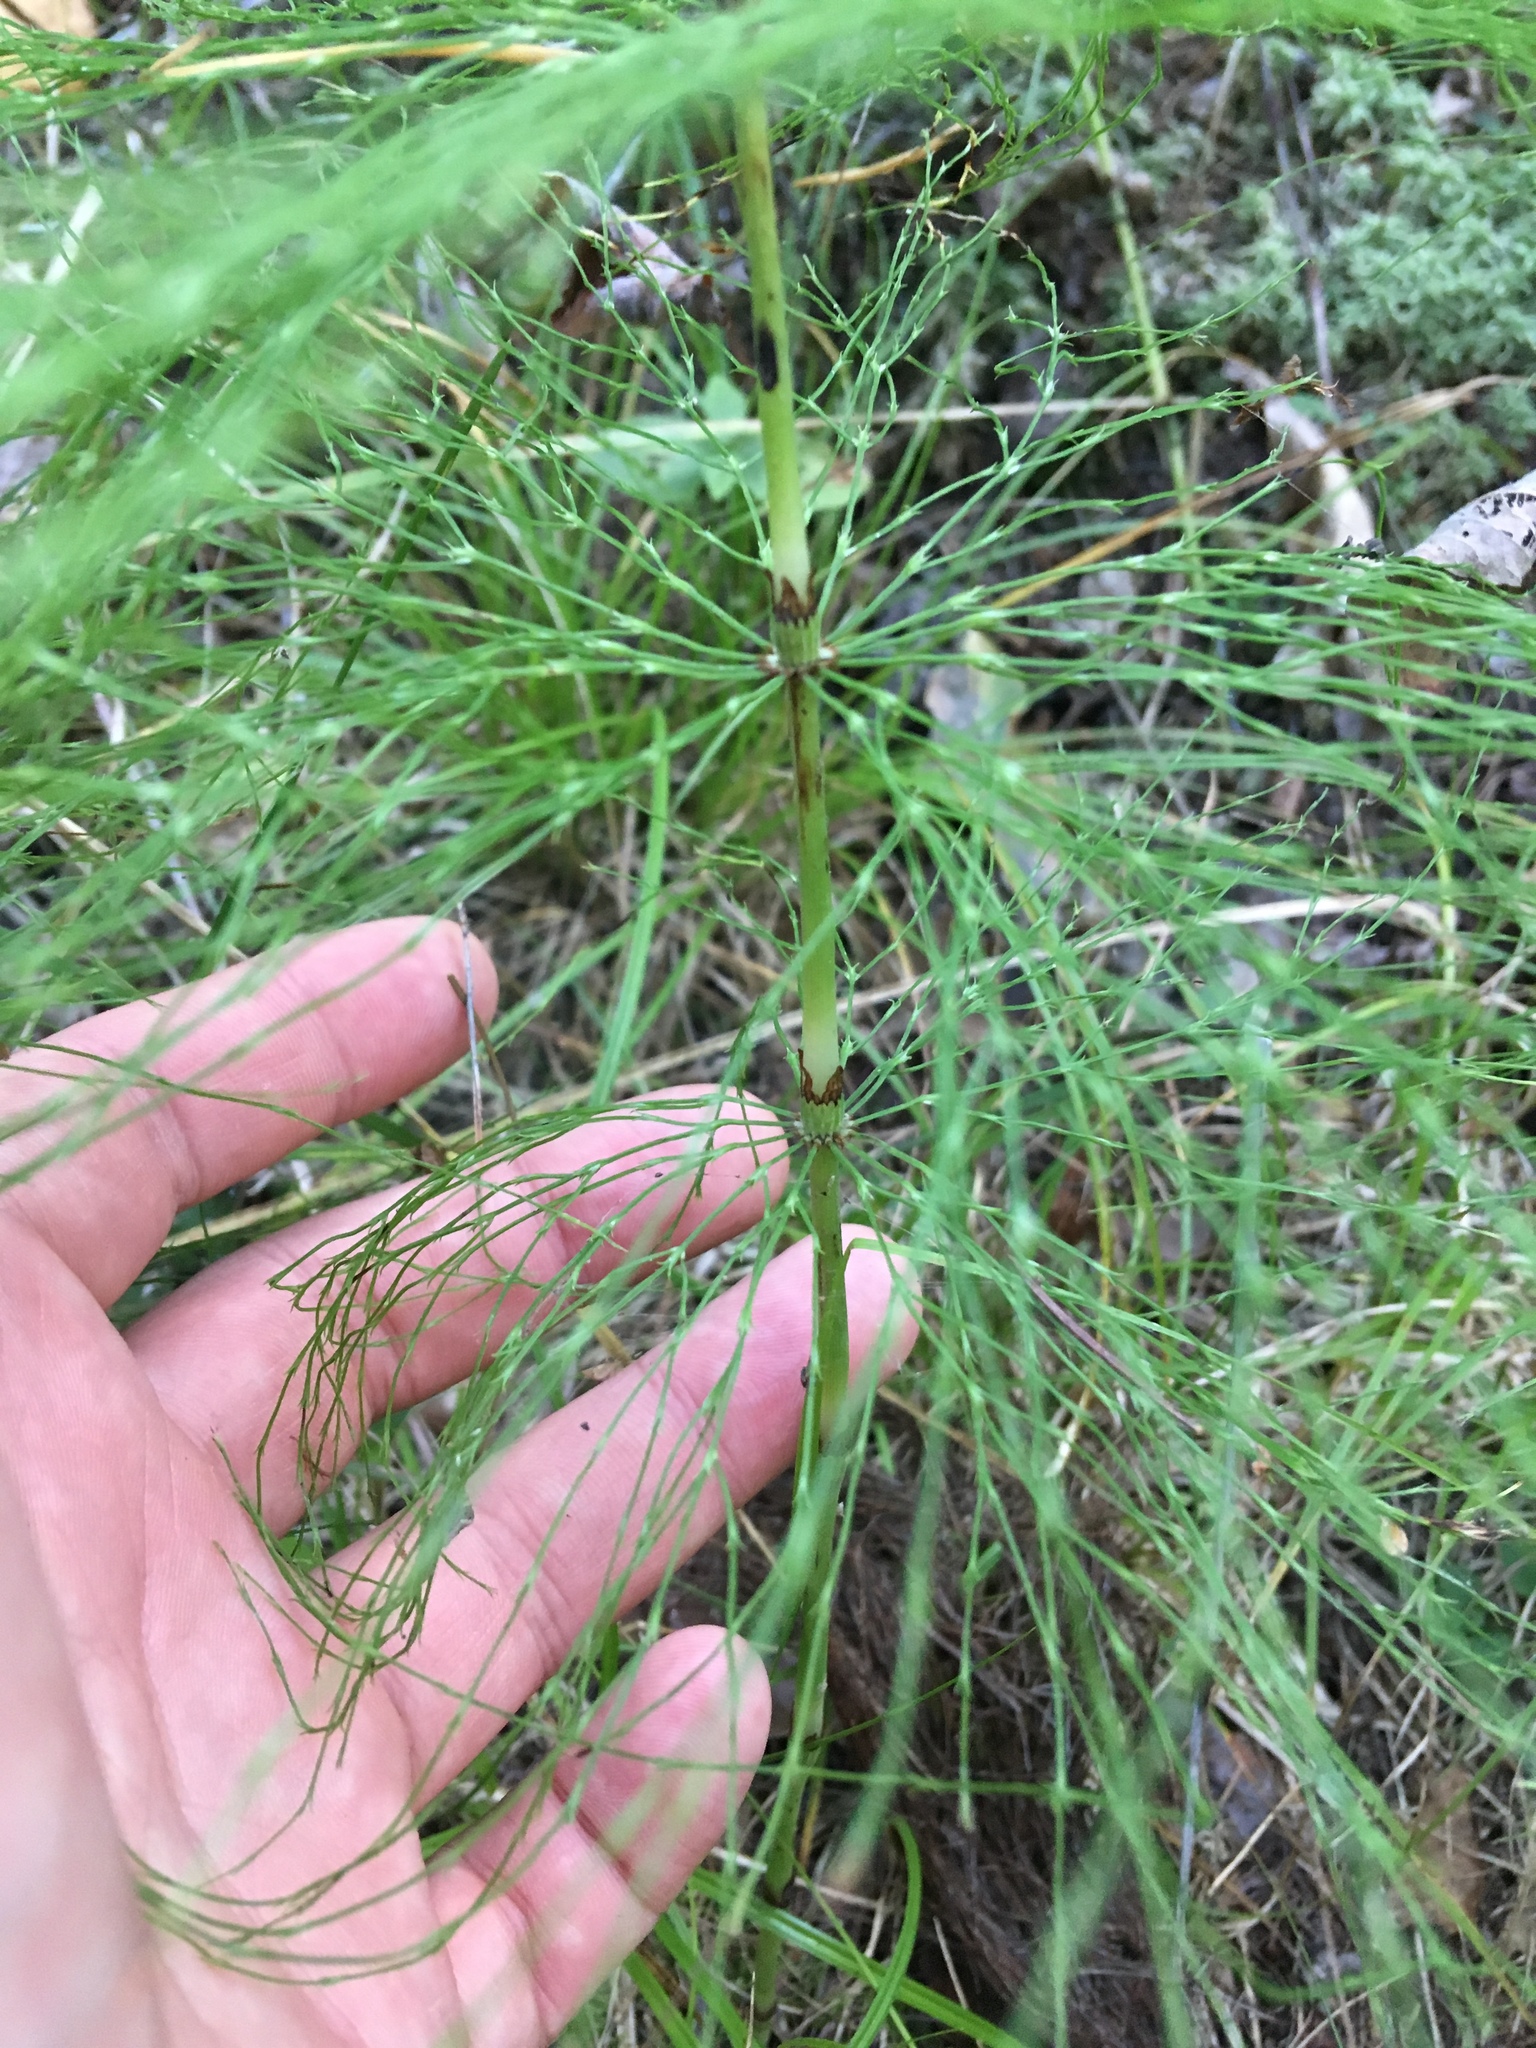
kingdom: Plantae
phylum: Tracheophyta
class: Polypodiopsida
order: Equisetales
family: Equisetaceae
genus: Equisetum
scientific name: Equisetum sylvaticum
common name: Wood horsetail
